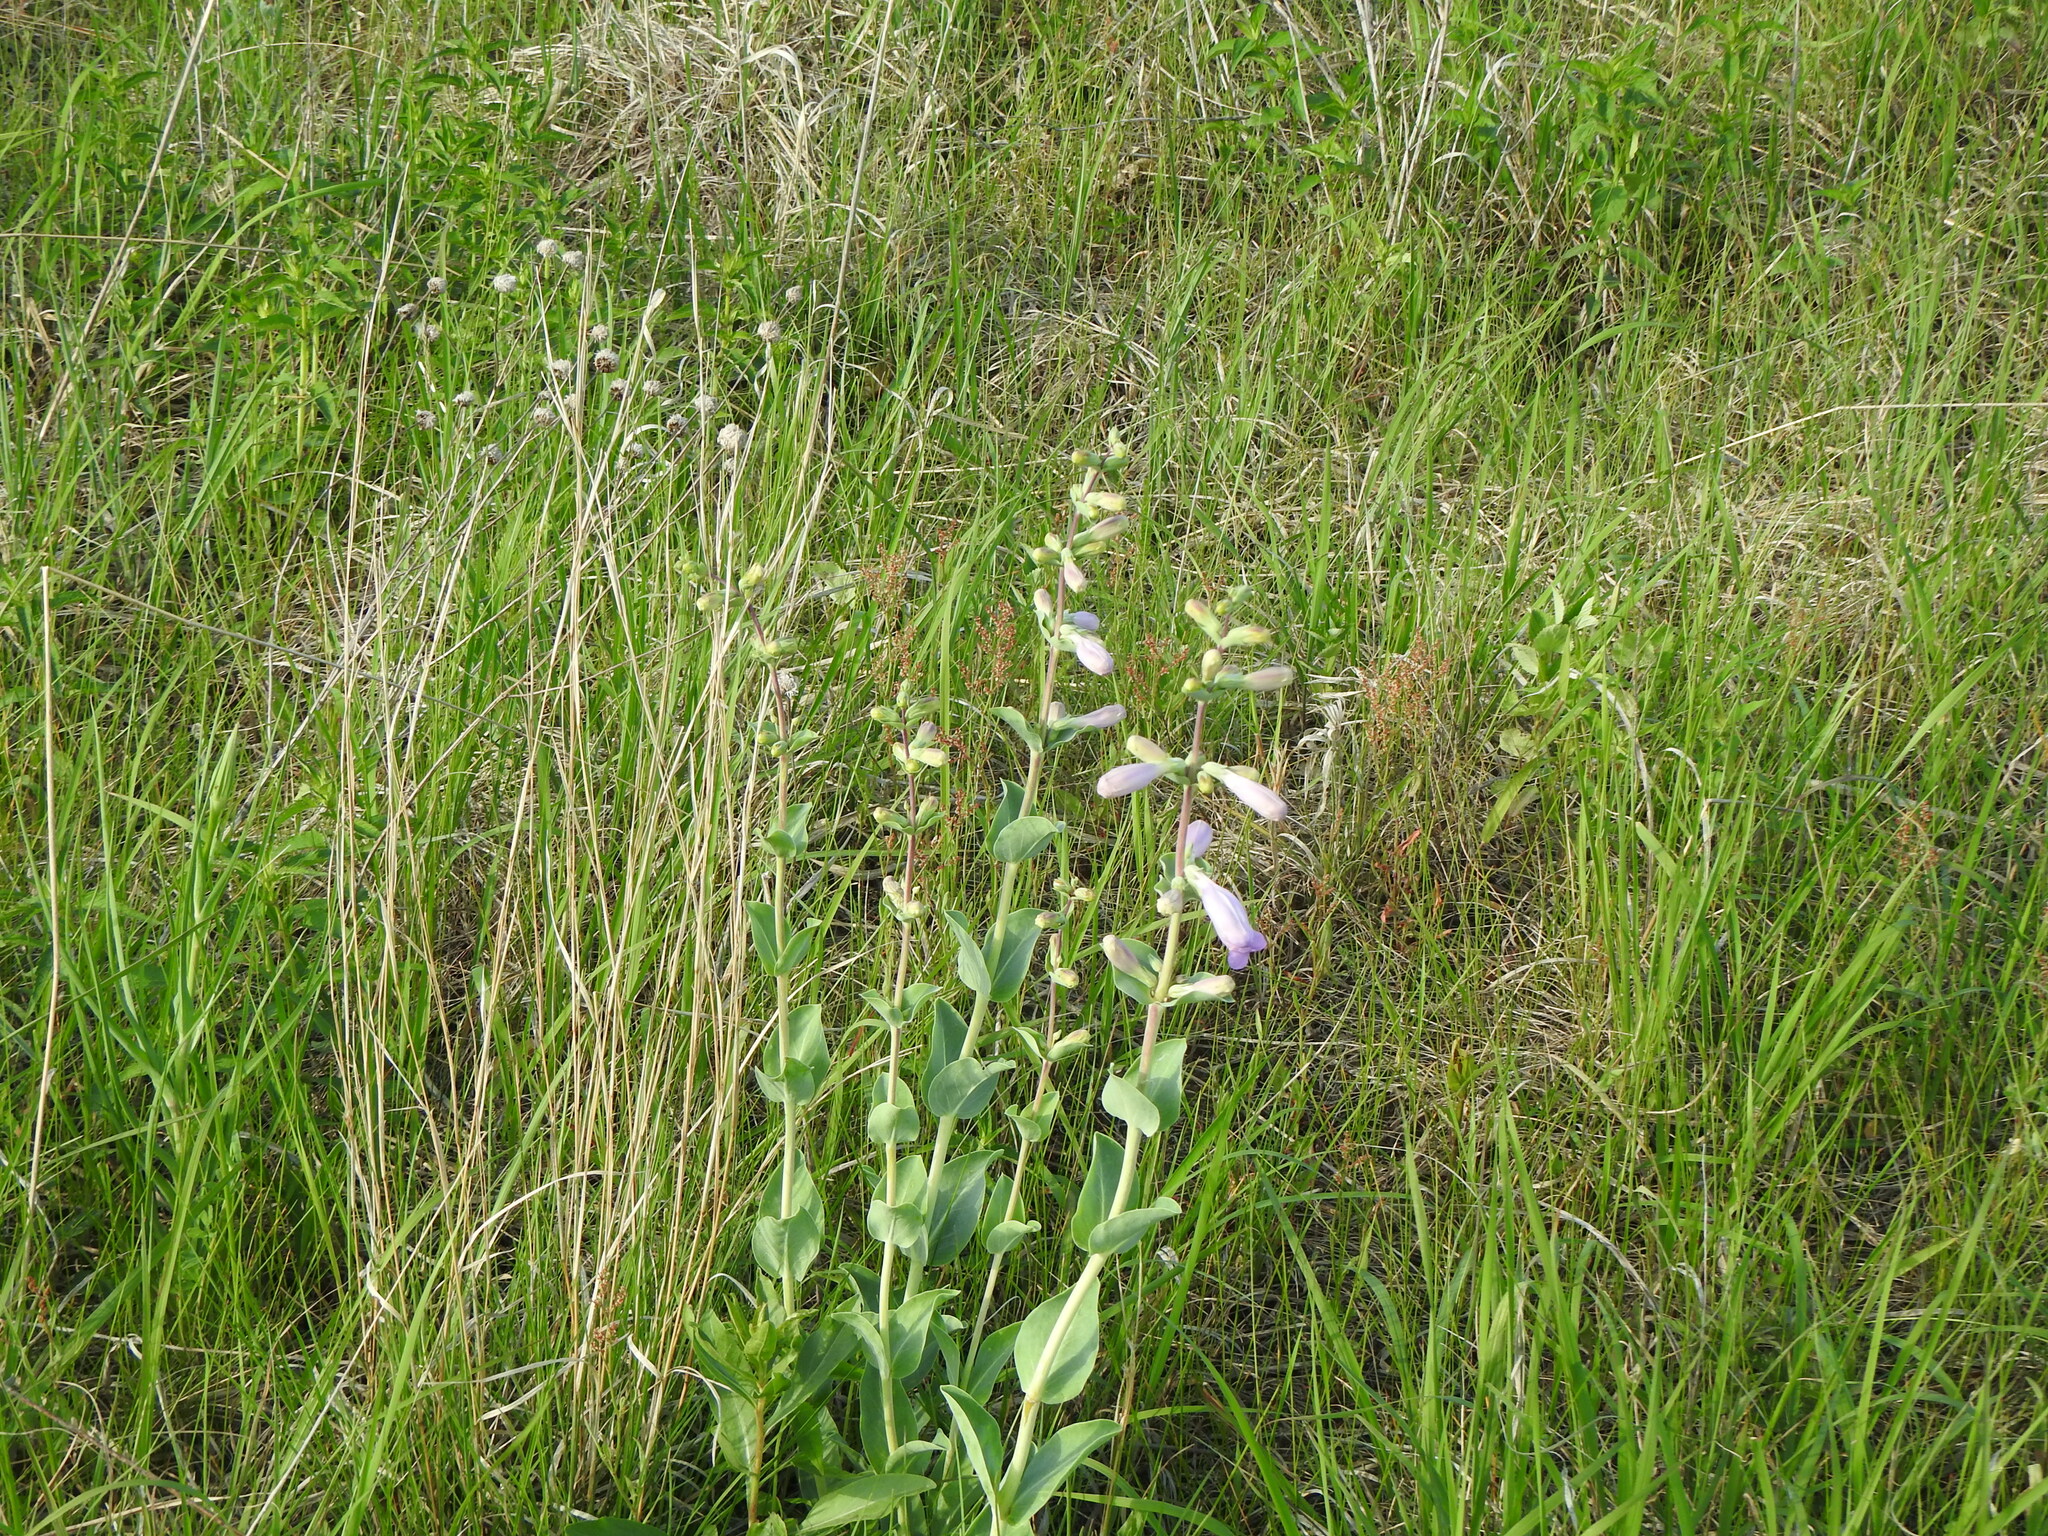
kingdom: Plantae
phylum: Tracheophyta
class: Magnoliopsida
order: Lamiales
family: Plantaginaceae
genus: Penstemon
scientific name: Penstemon
